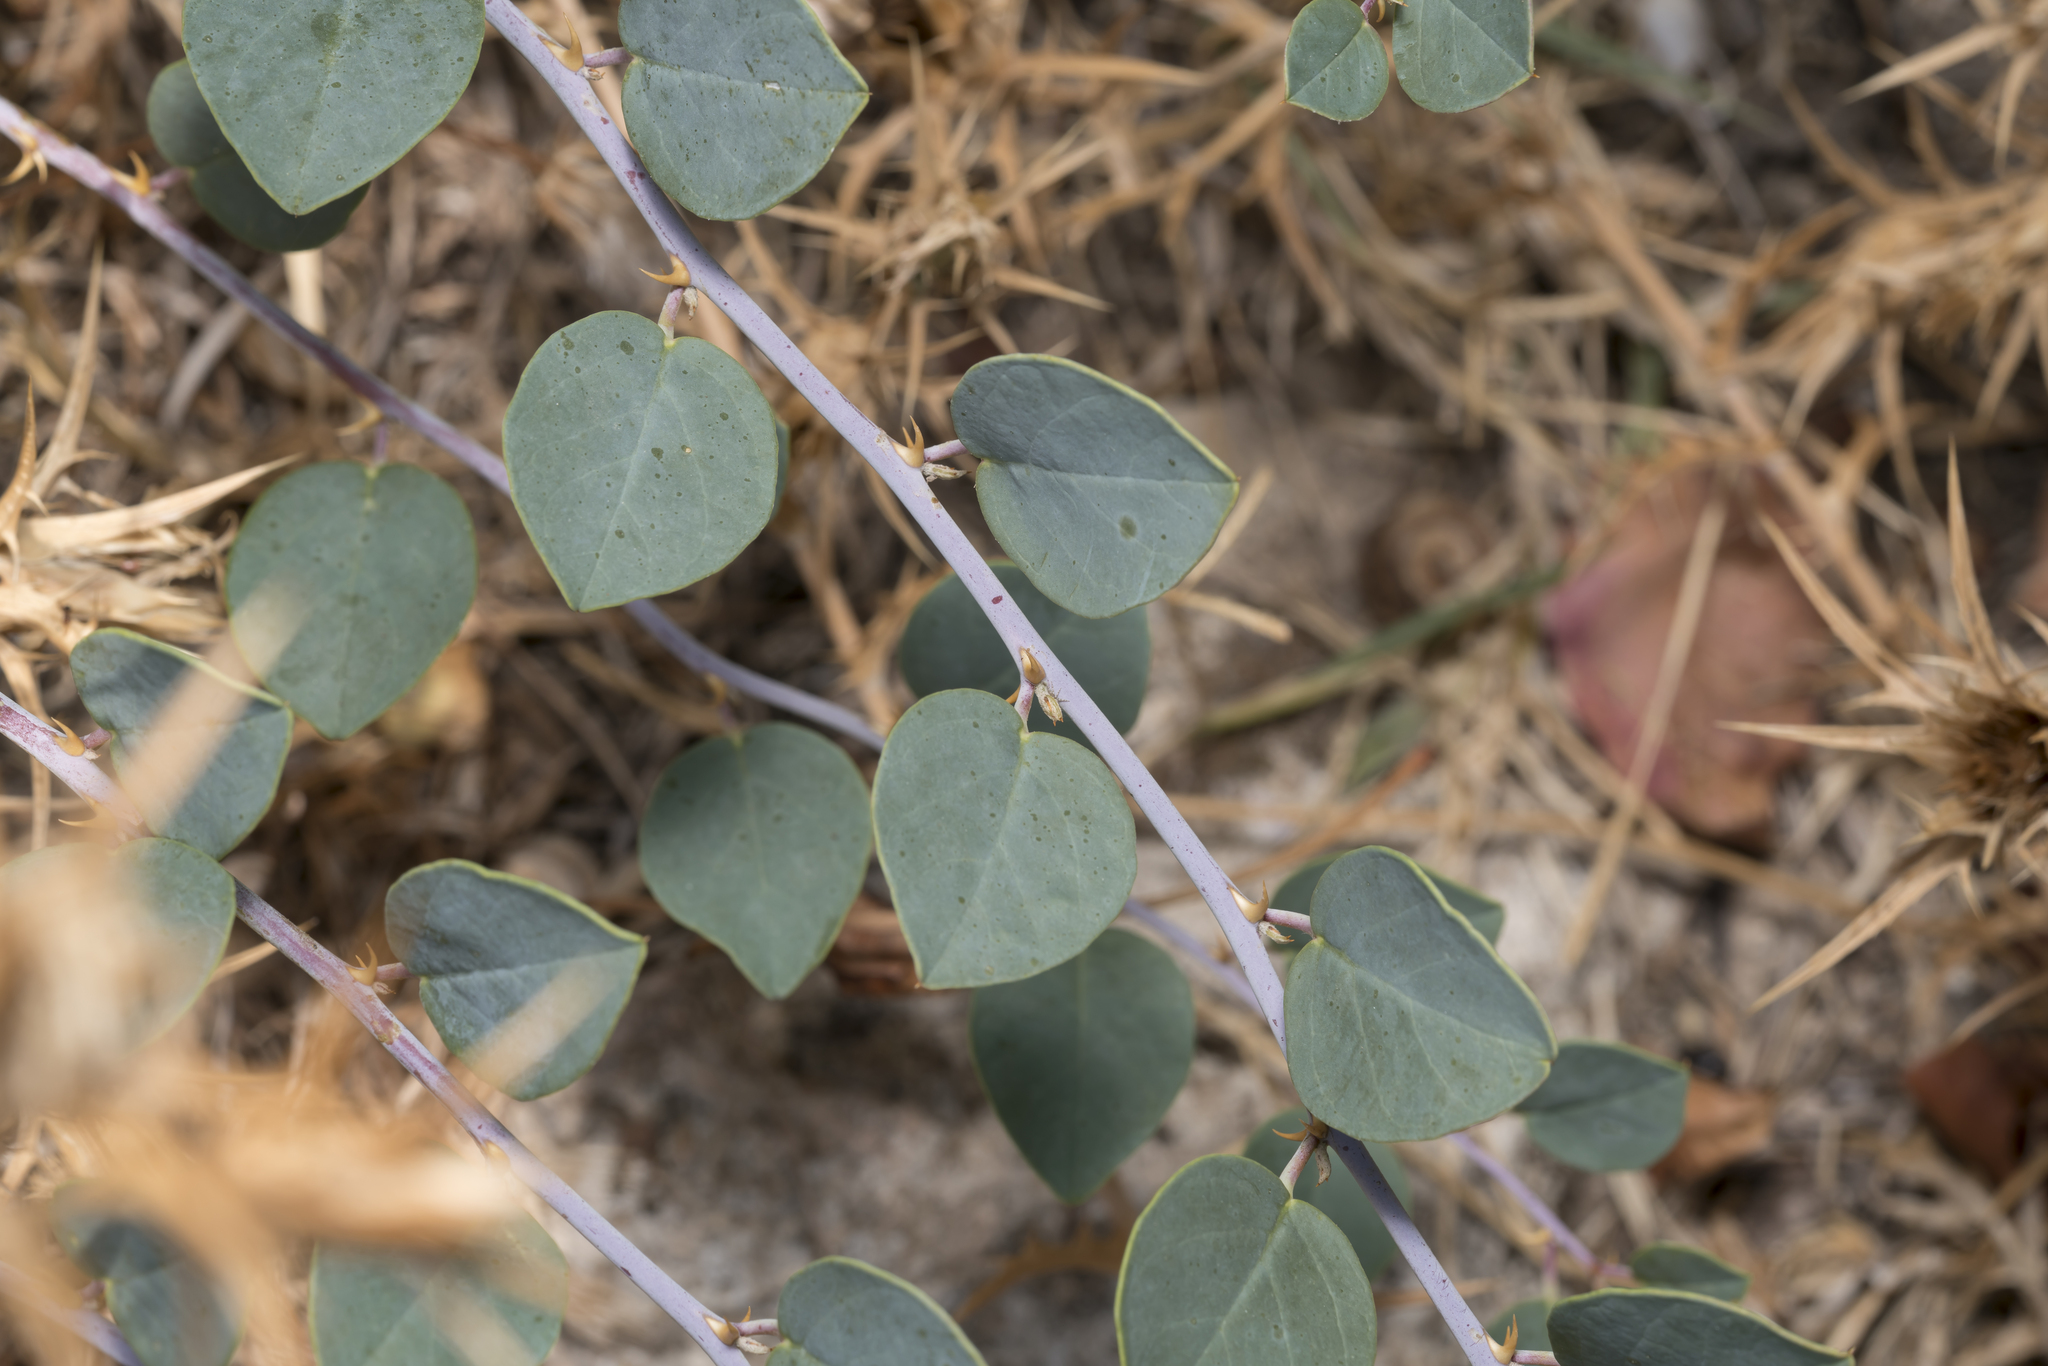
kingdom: Plantae
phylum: Tracheophyta
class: Magnoliopsida
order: Brassicales
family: Capparaceae
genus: Capparis
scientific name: Capparis spinosa
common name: Caper
